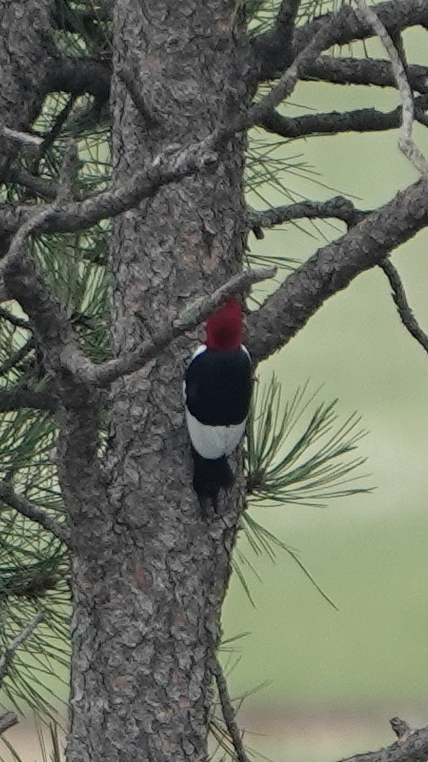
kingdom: Animalia
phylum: Chordata
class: Aves
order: Piciformes
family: Picidae
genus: Melanerpes
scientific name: Melanerpes erythrocephalus
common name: Red-headed woodpecker
